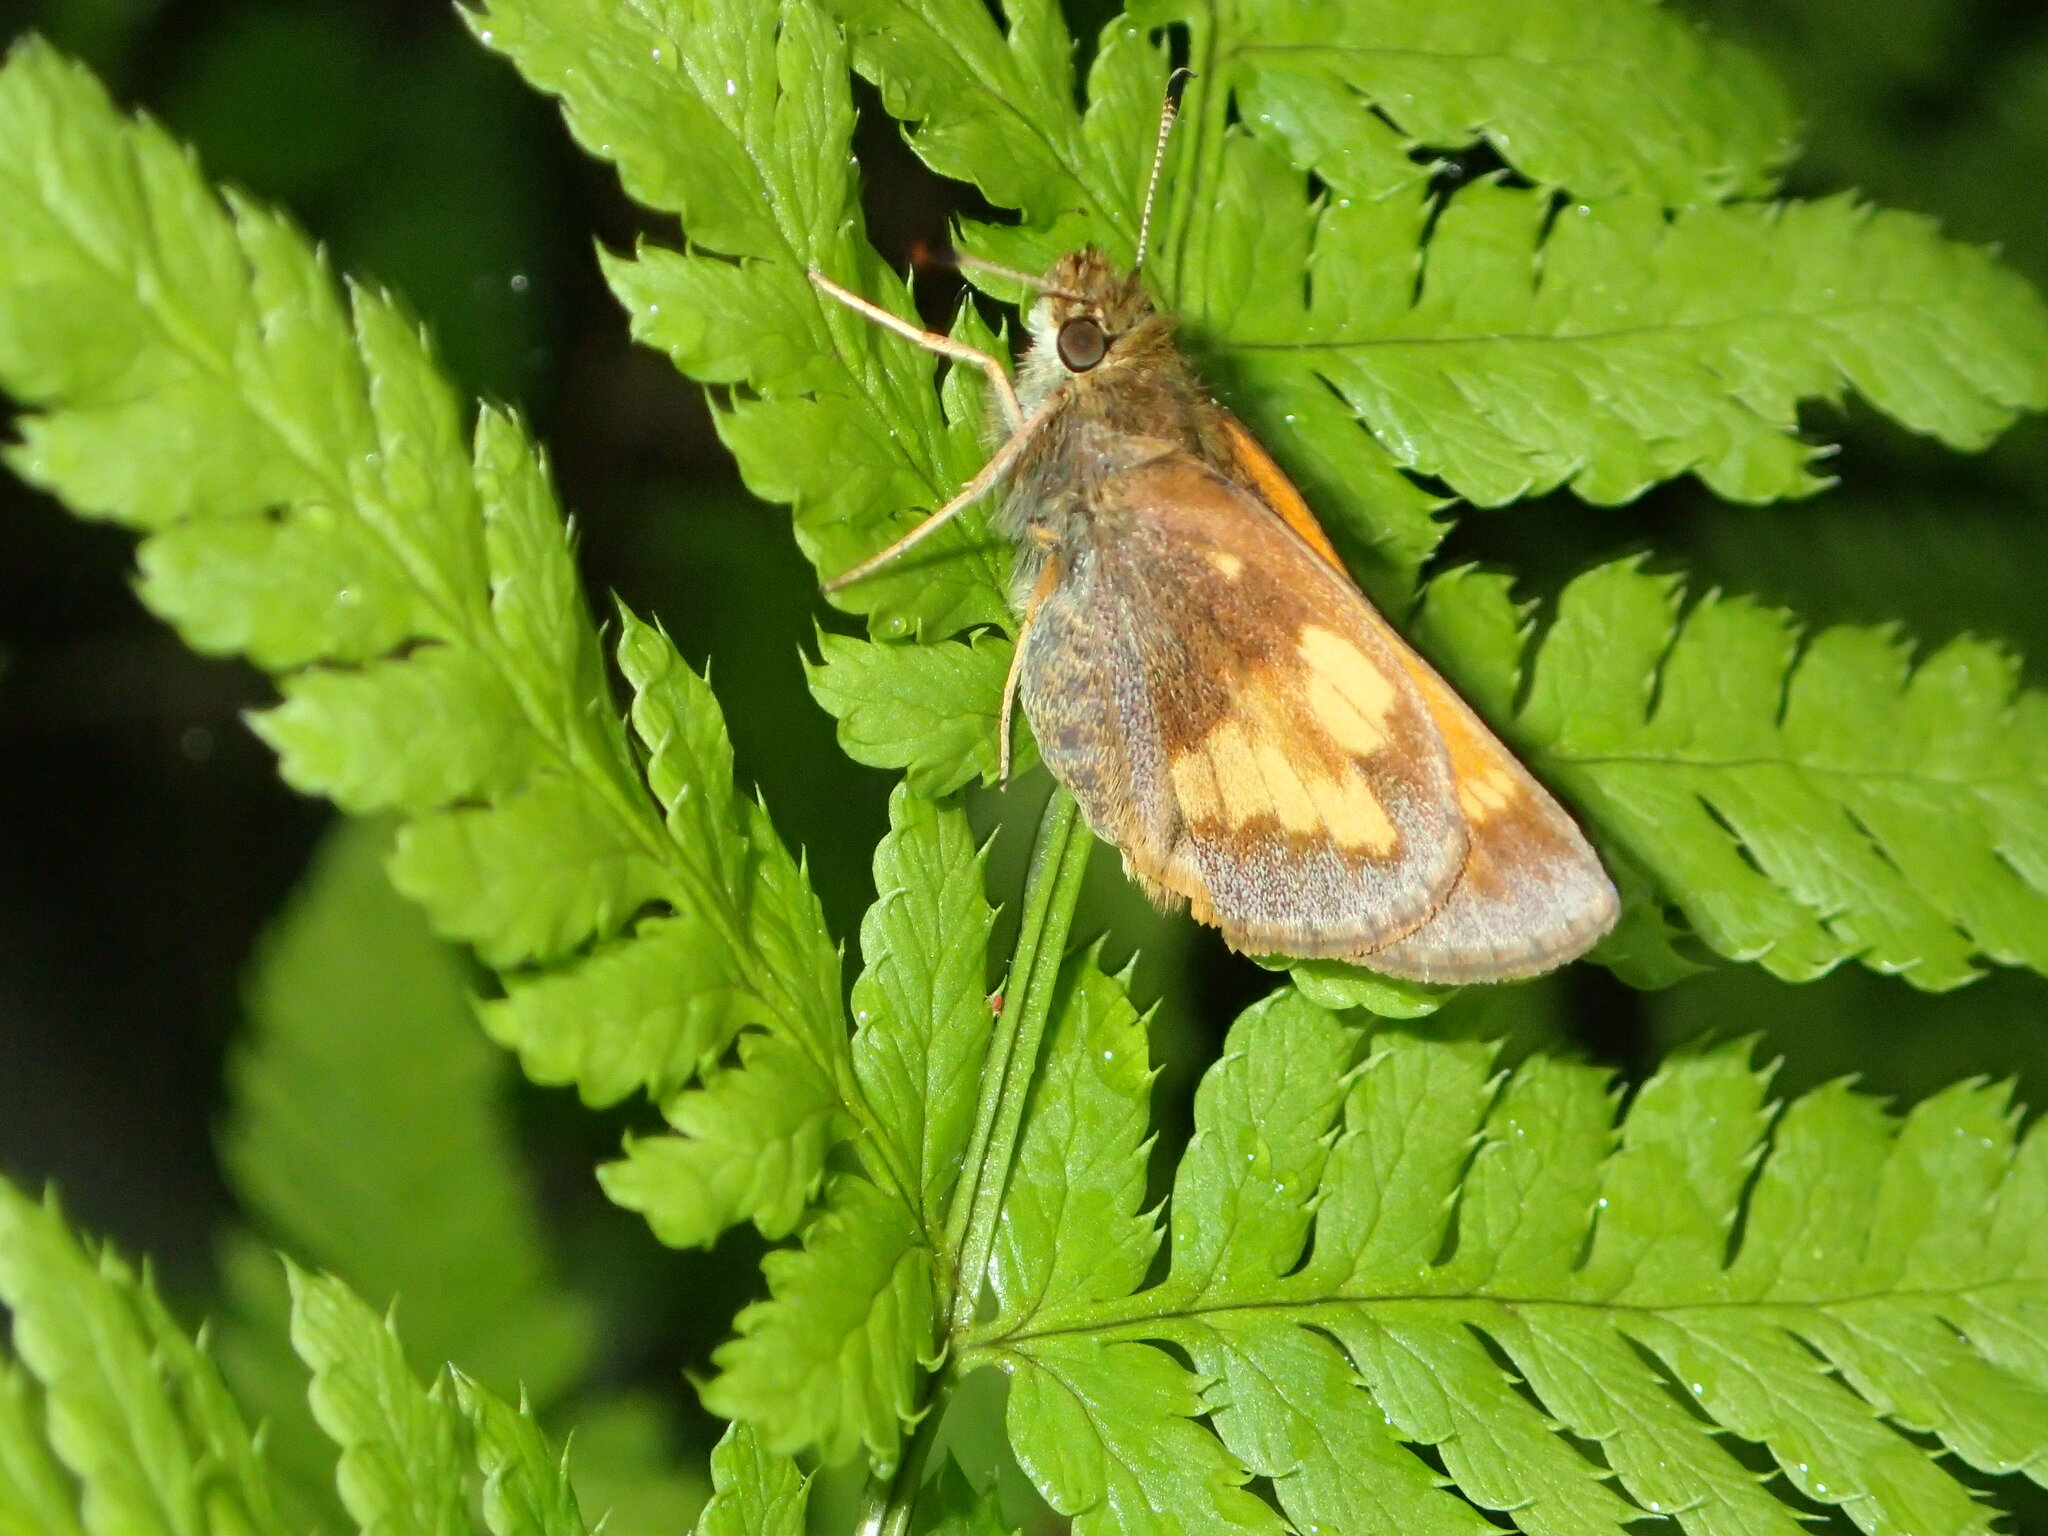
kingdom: Animalia
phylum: Arthropoda
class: Insecta
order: Lepidoptera
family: Hesperiidae
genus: Lon
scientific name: Lon hobomok
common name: Hobomok skipper
